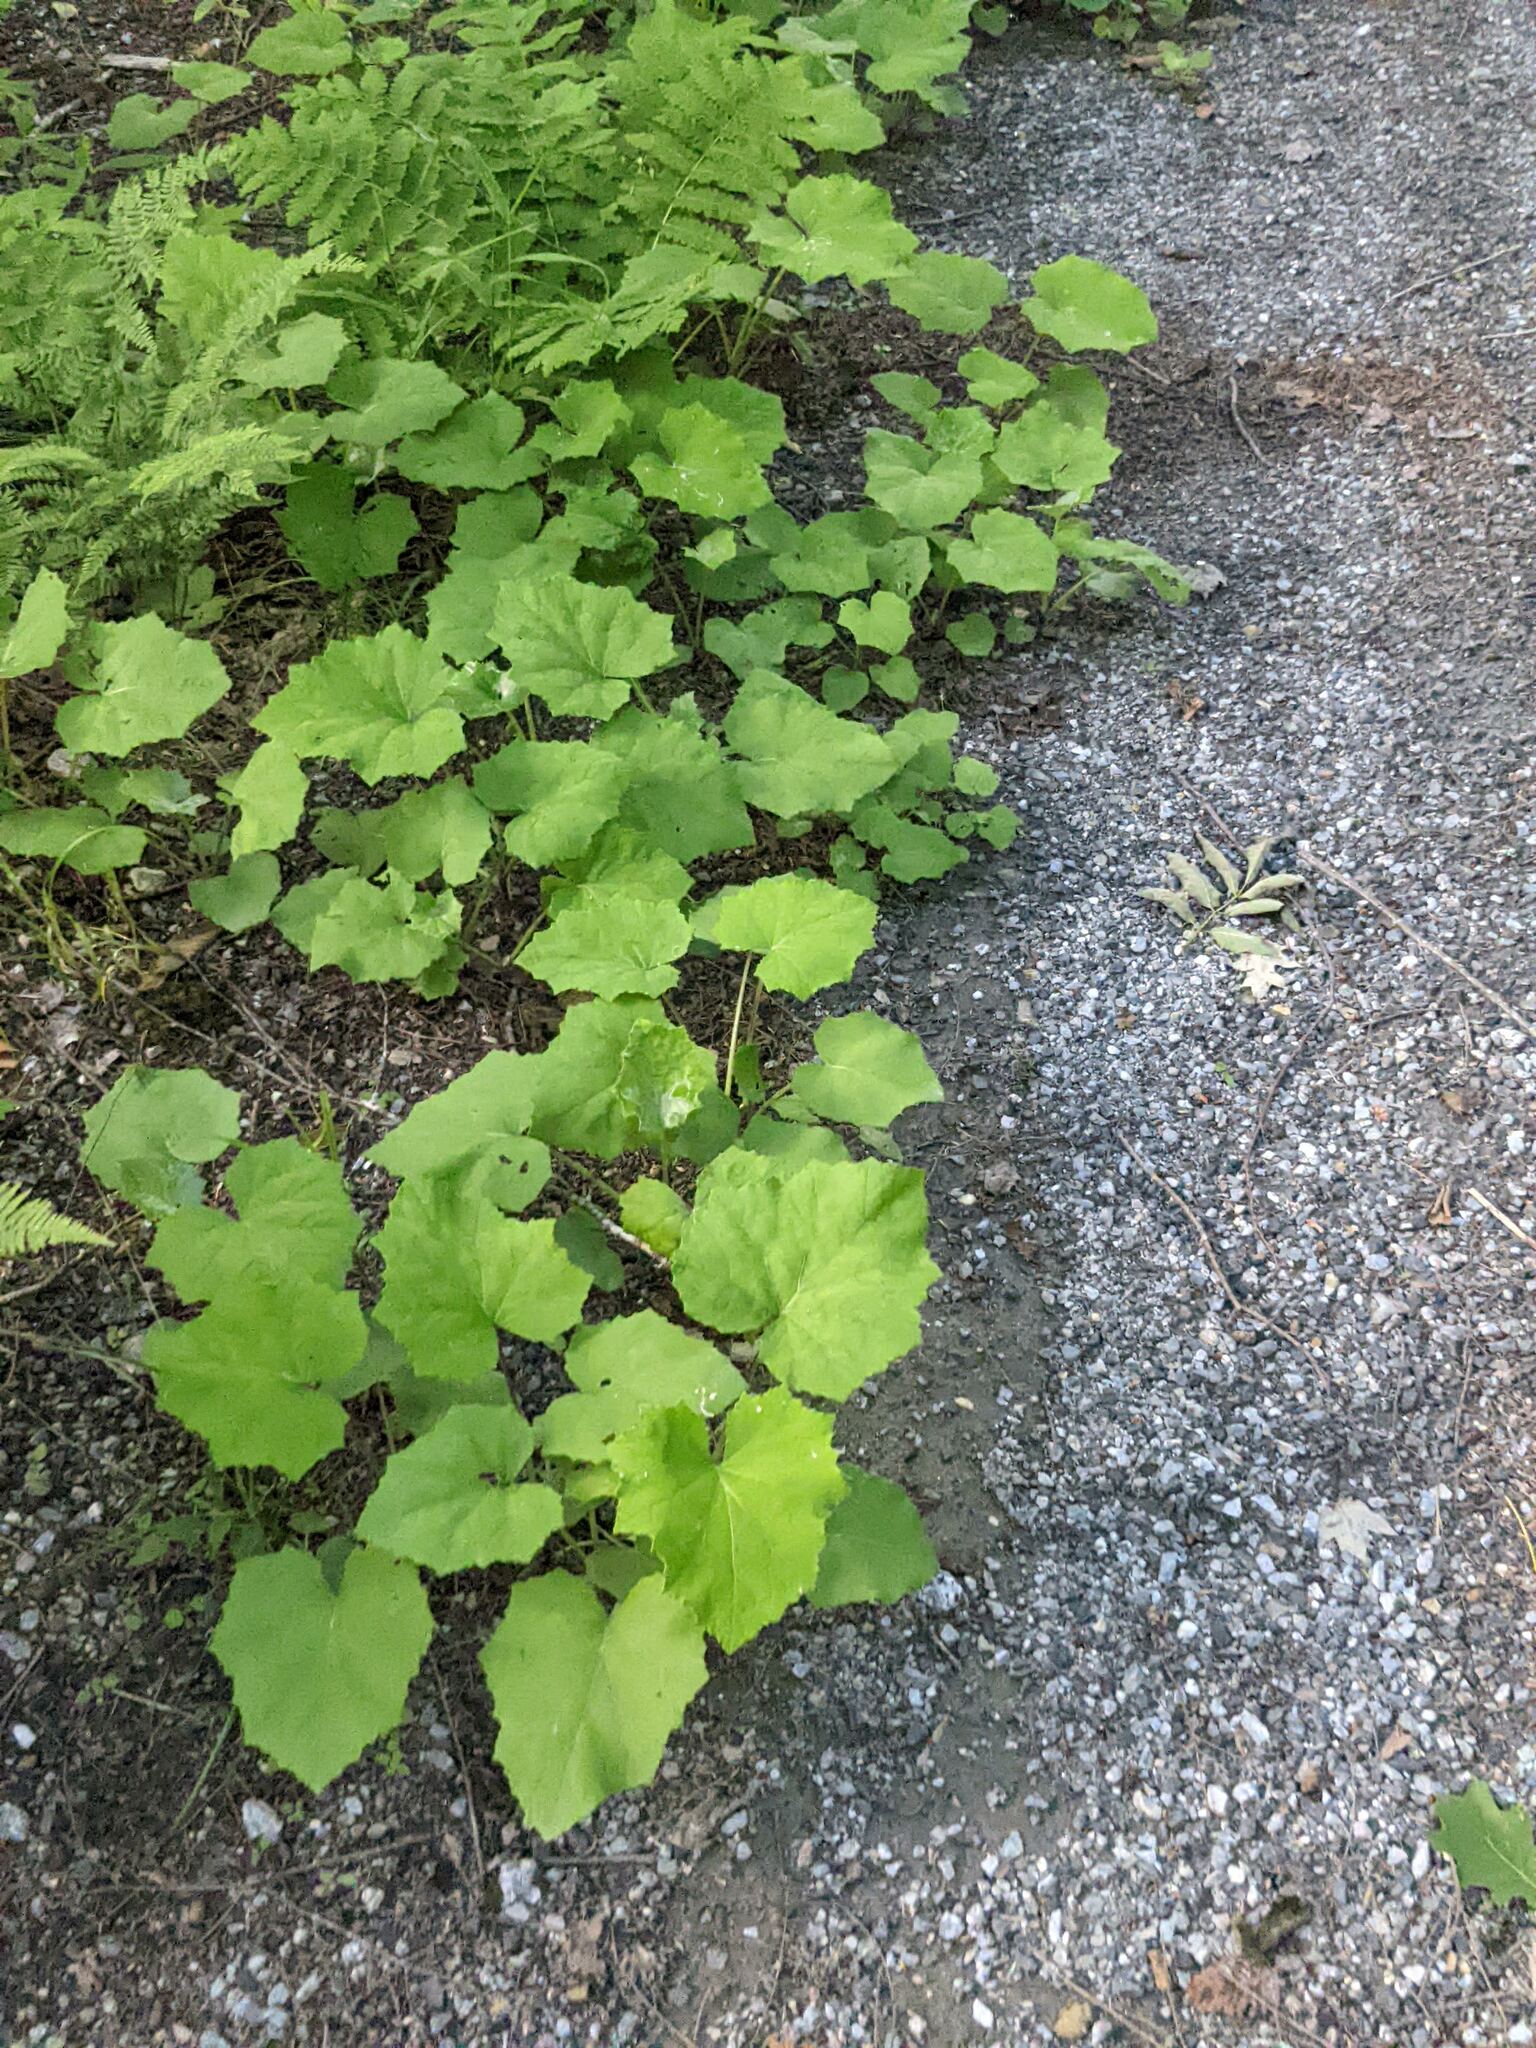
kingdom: Plantae
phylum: Tracheophyta
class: Magnoliopsida
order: Asterales
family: Asteraceae
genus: Tussilago
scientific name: Tussilago farfara
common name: Coltsfoot
